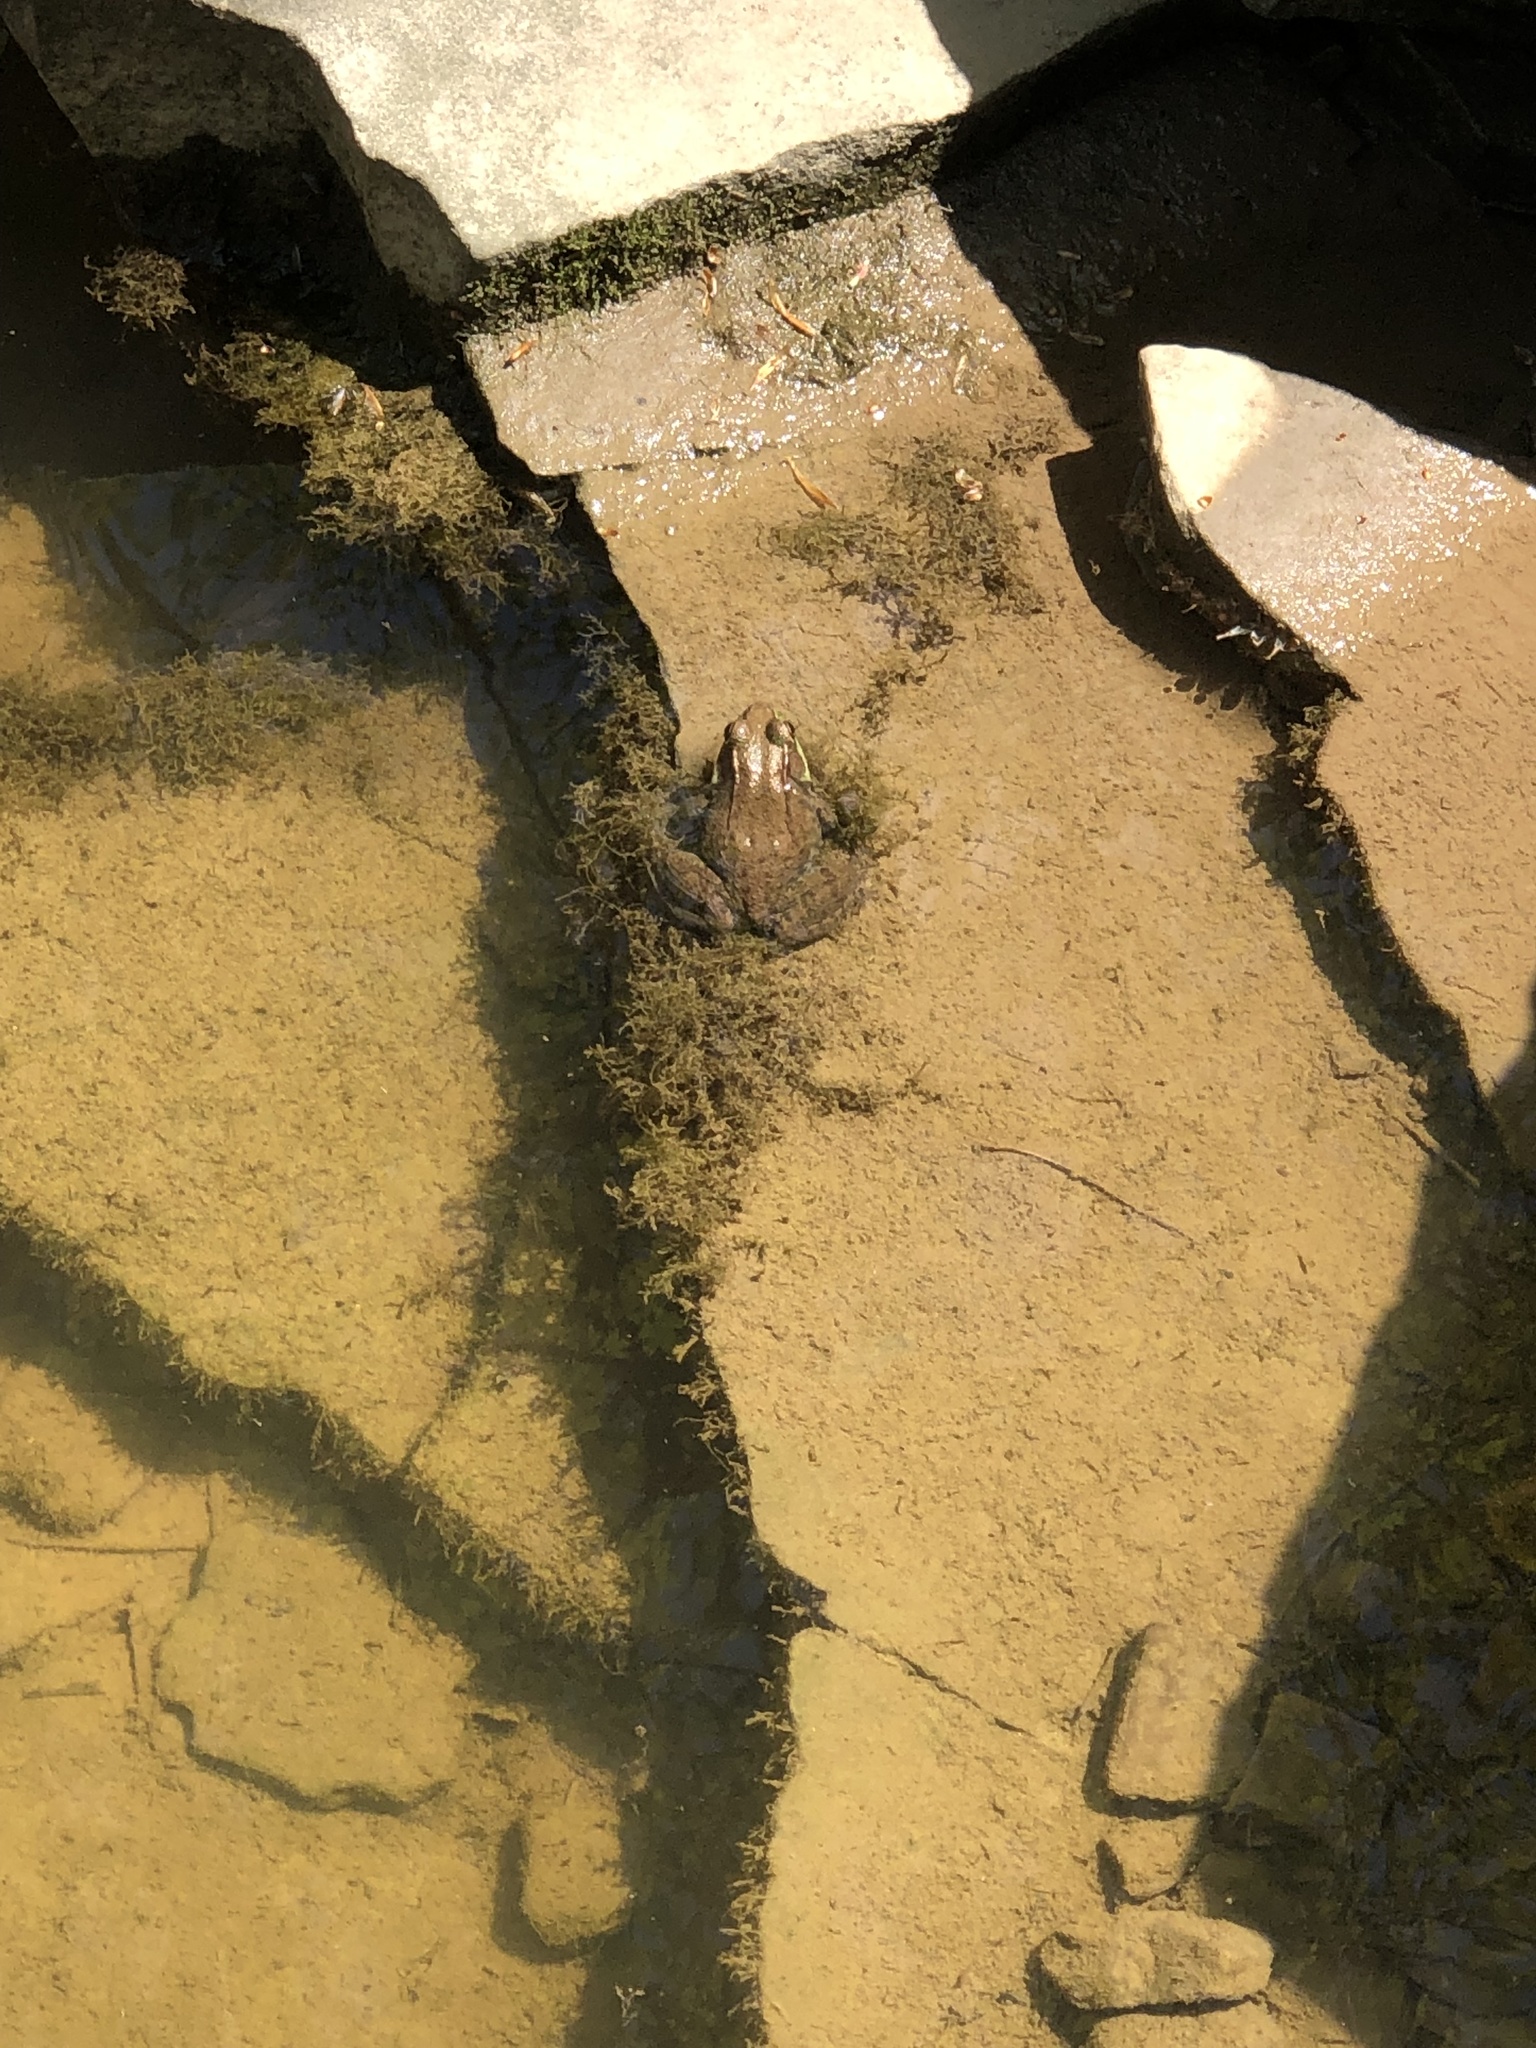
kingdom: Animalia
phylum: Chordata
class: Amphibia
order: Anura
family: Ranidae
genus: Lithobates
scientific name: Lithobates clamitans
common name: Green frog
